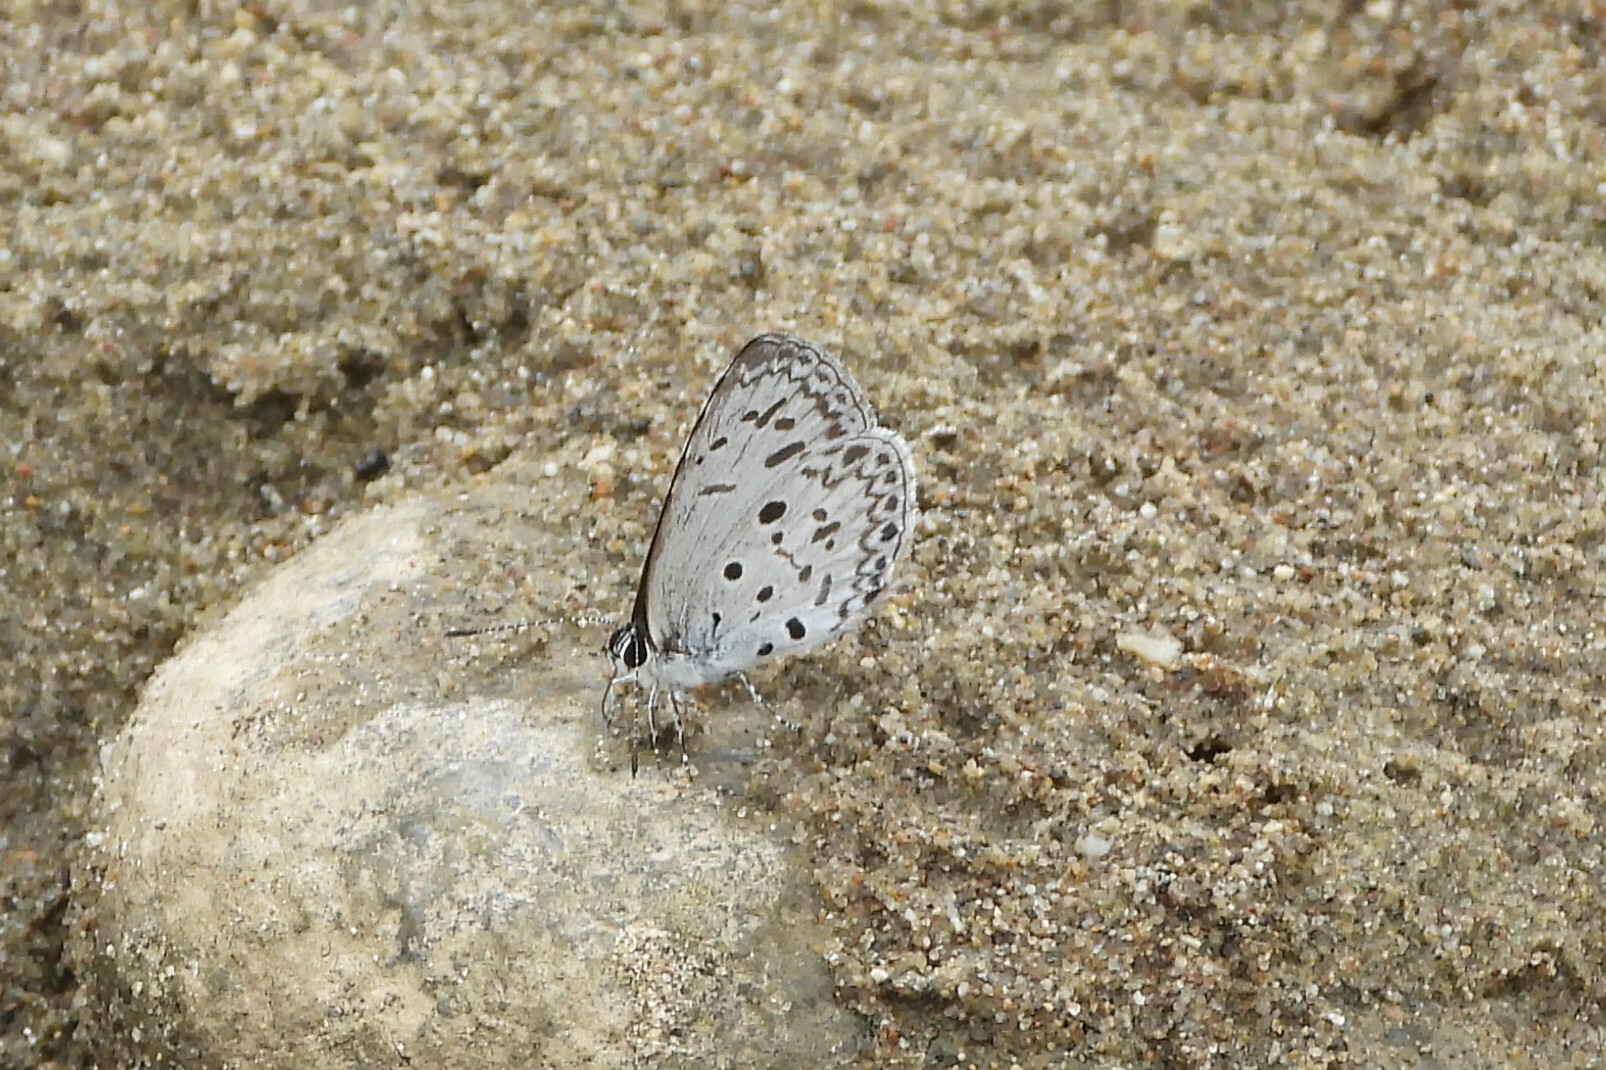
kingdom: Animalia
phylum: Arthropoda
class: Insecta
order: Lepidoptera
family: Lycaenidae
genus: Acytolepis
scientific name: Acytolepis puspa
